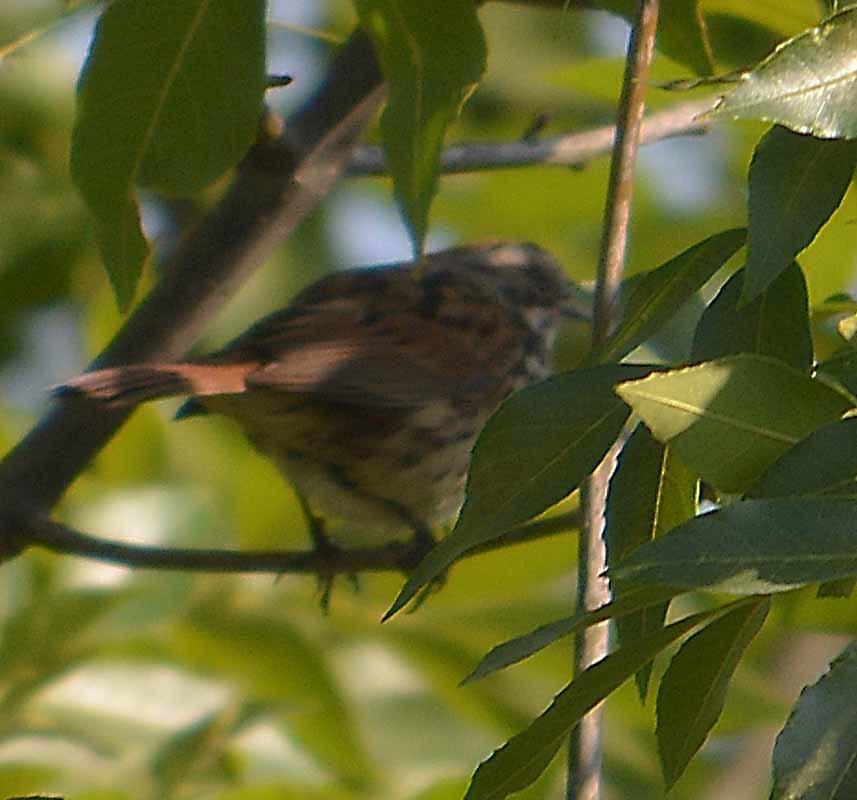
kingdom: Animalia
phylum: Chordata
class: Aves
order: Passeriformes
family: Passerellidae
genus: Melospiza
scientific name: Melospiza melodia
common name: Song sparrow
